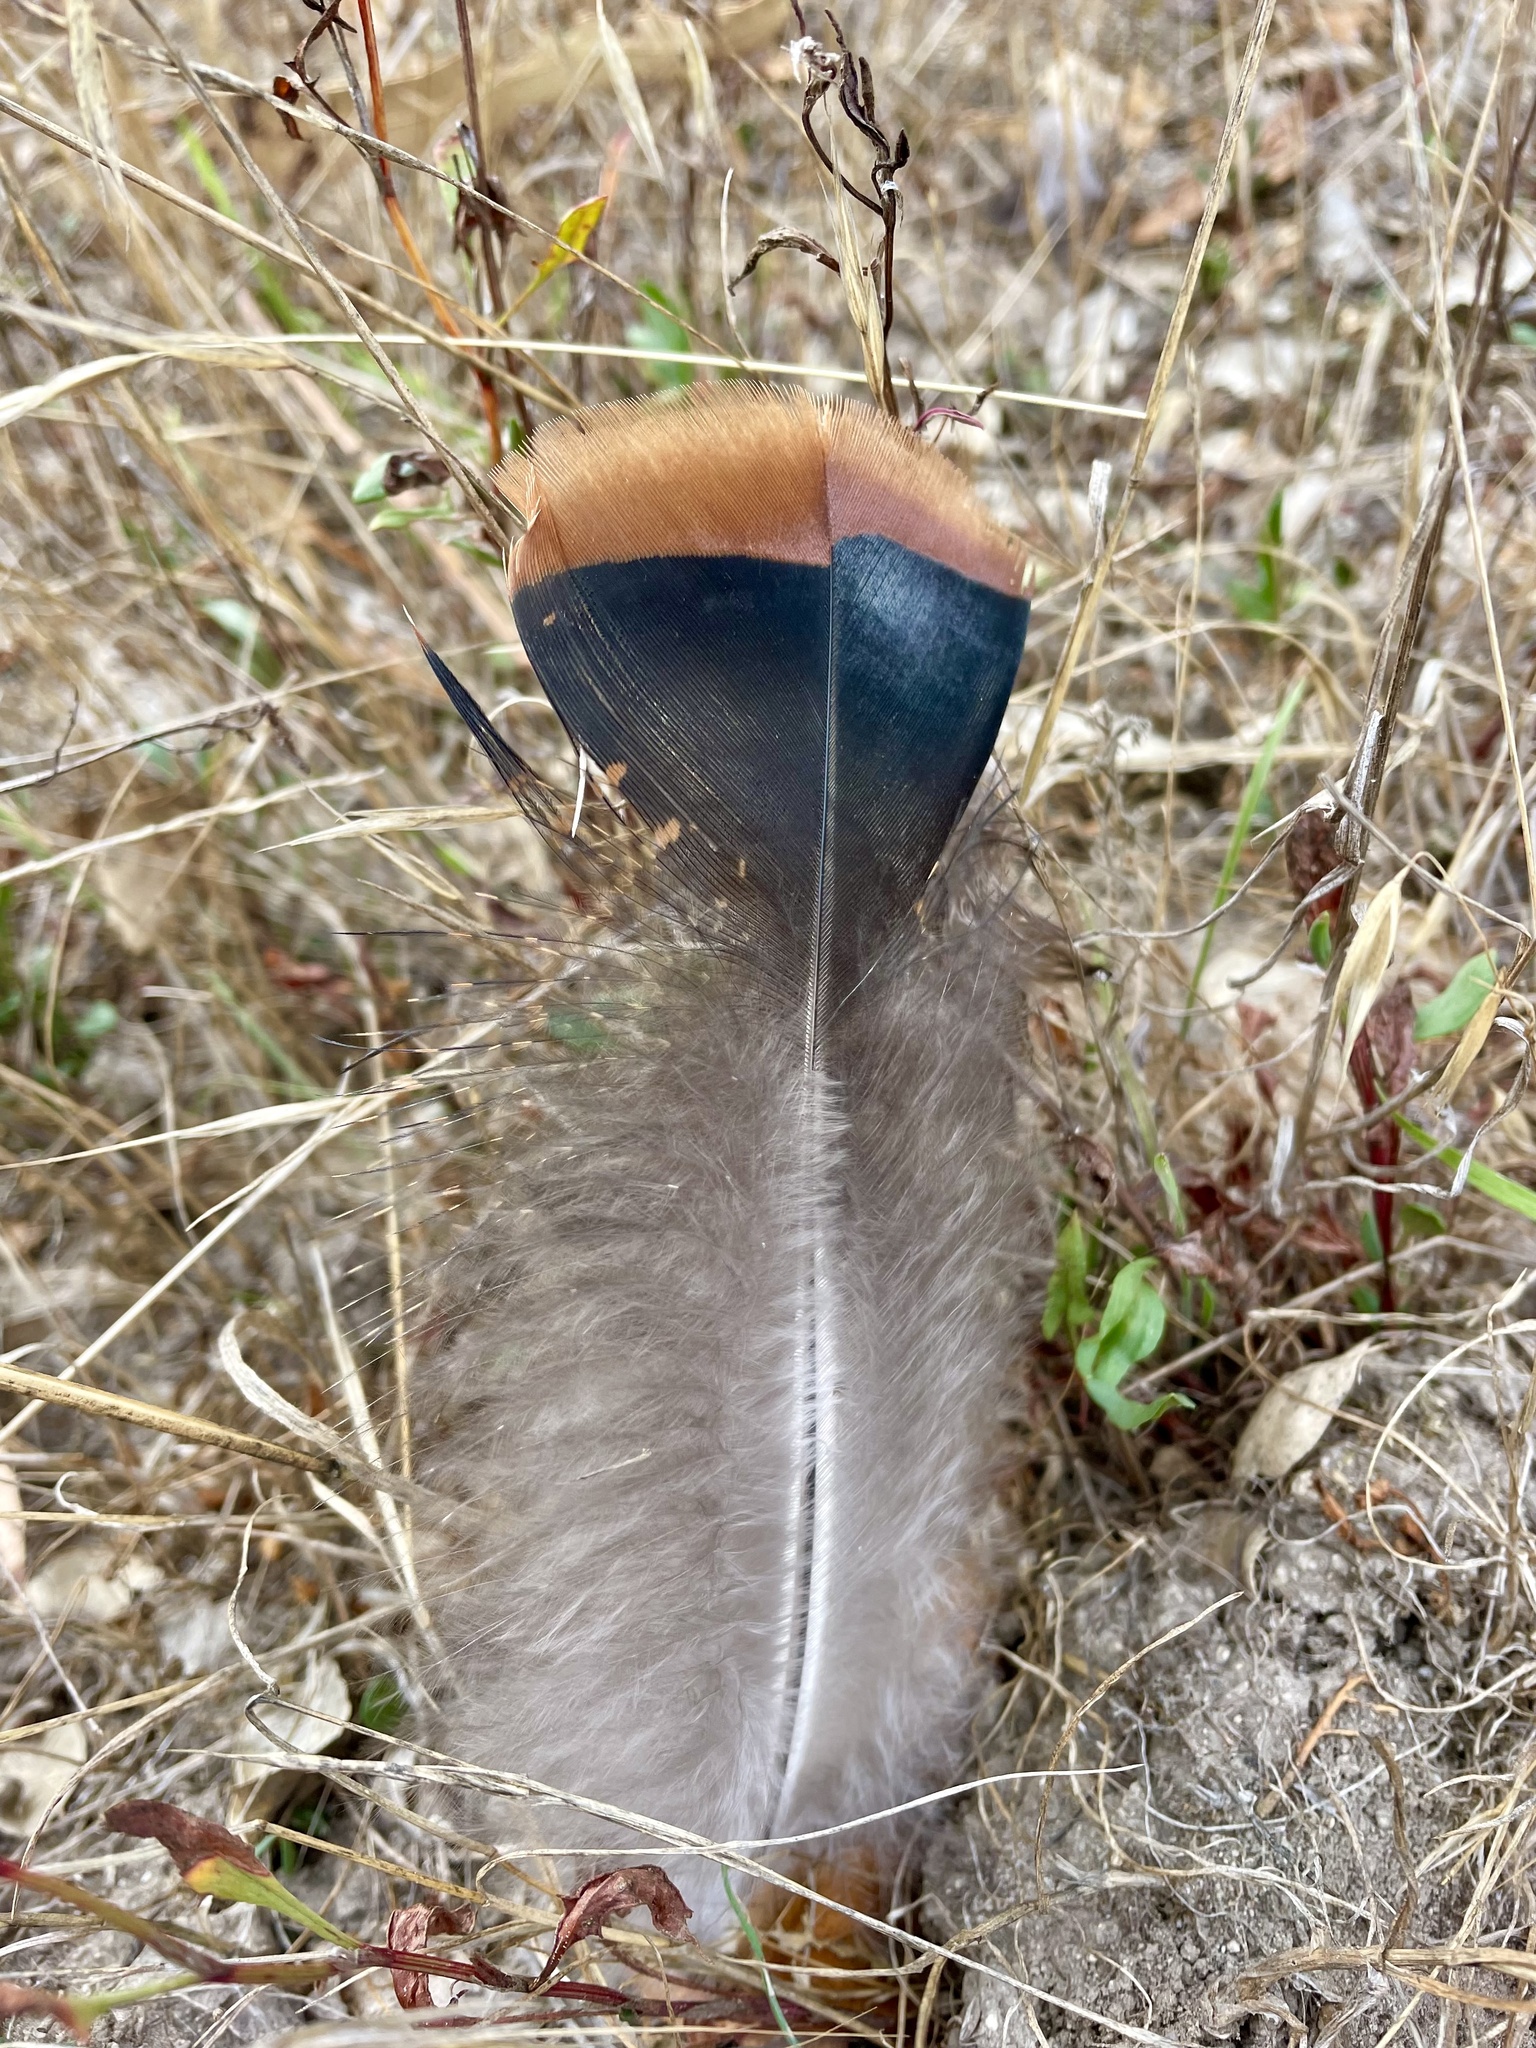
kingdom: Animalia
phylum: Chordata
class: Aves
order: Galliformes
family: Phasianidae
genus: Meleagris
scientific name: Meleagris gallopavo
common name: Wild turkey
